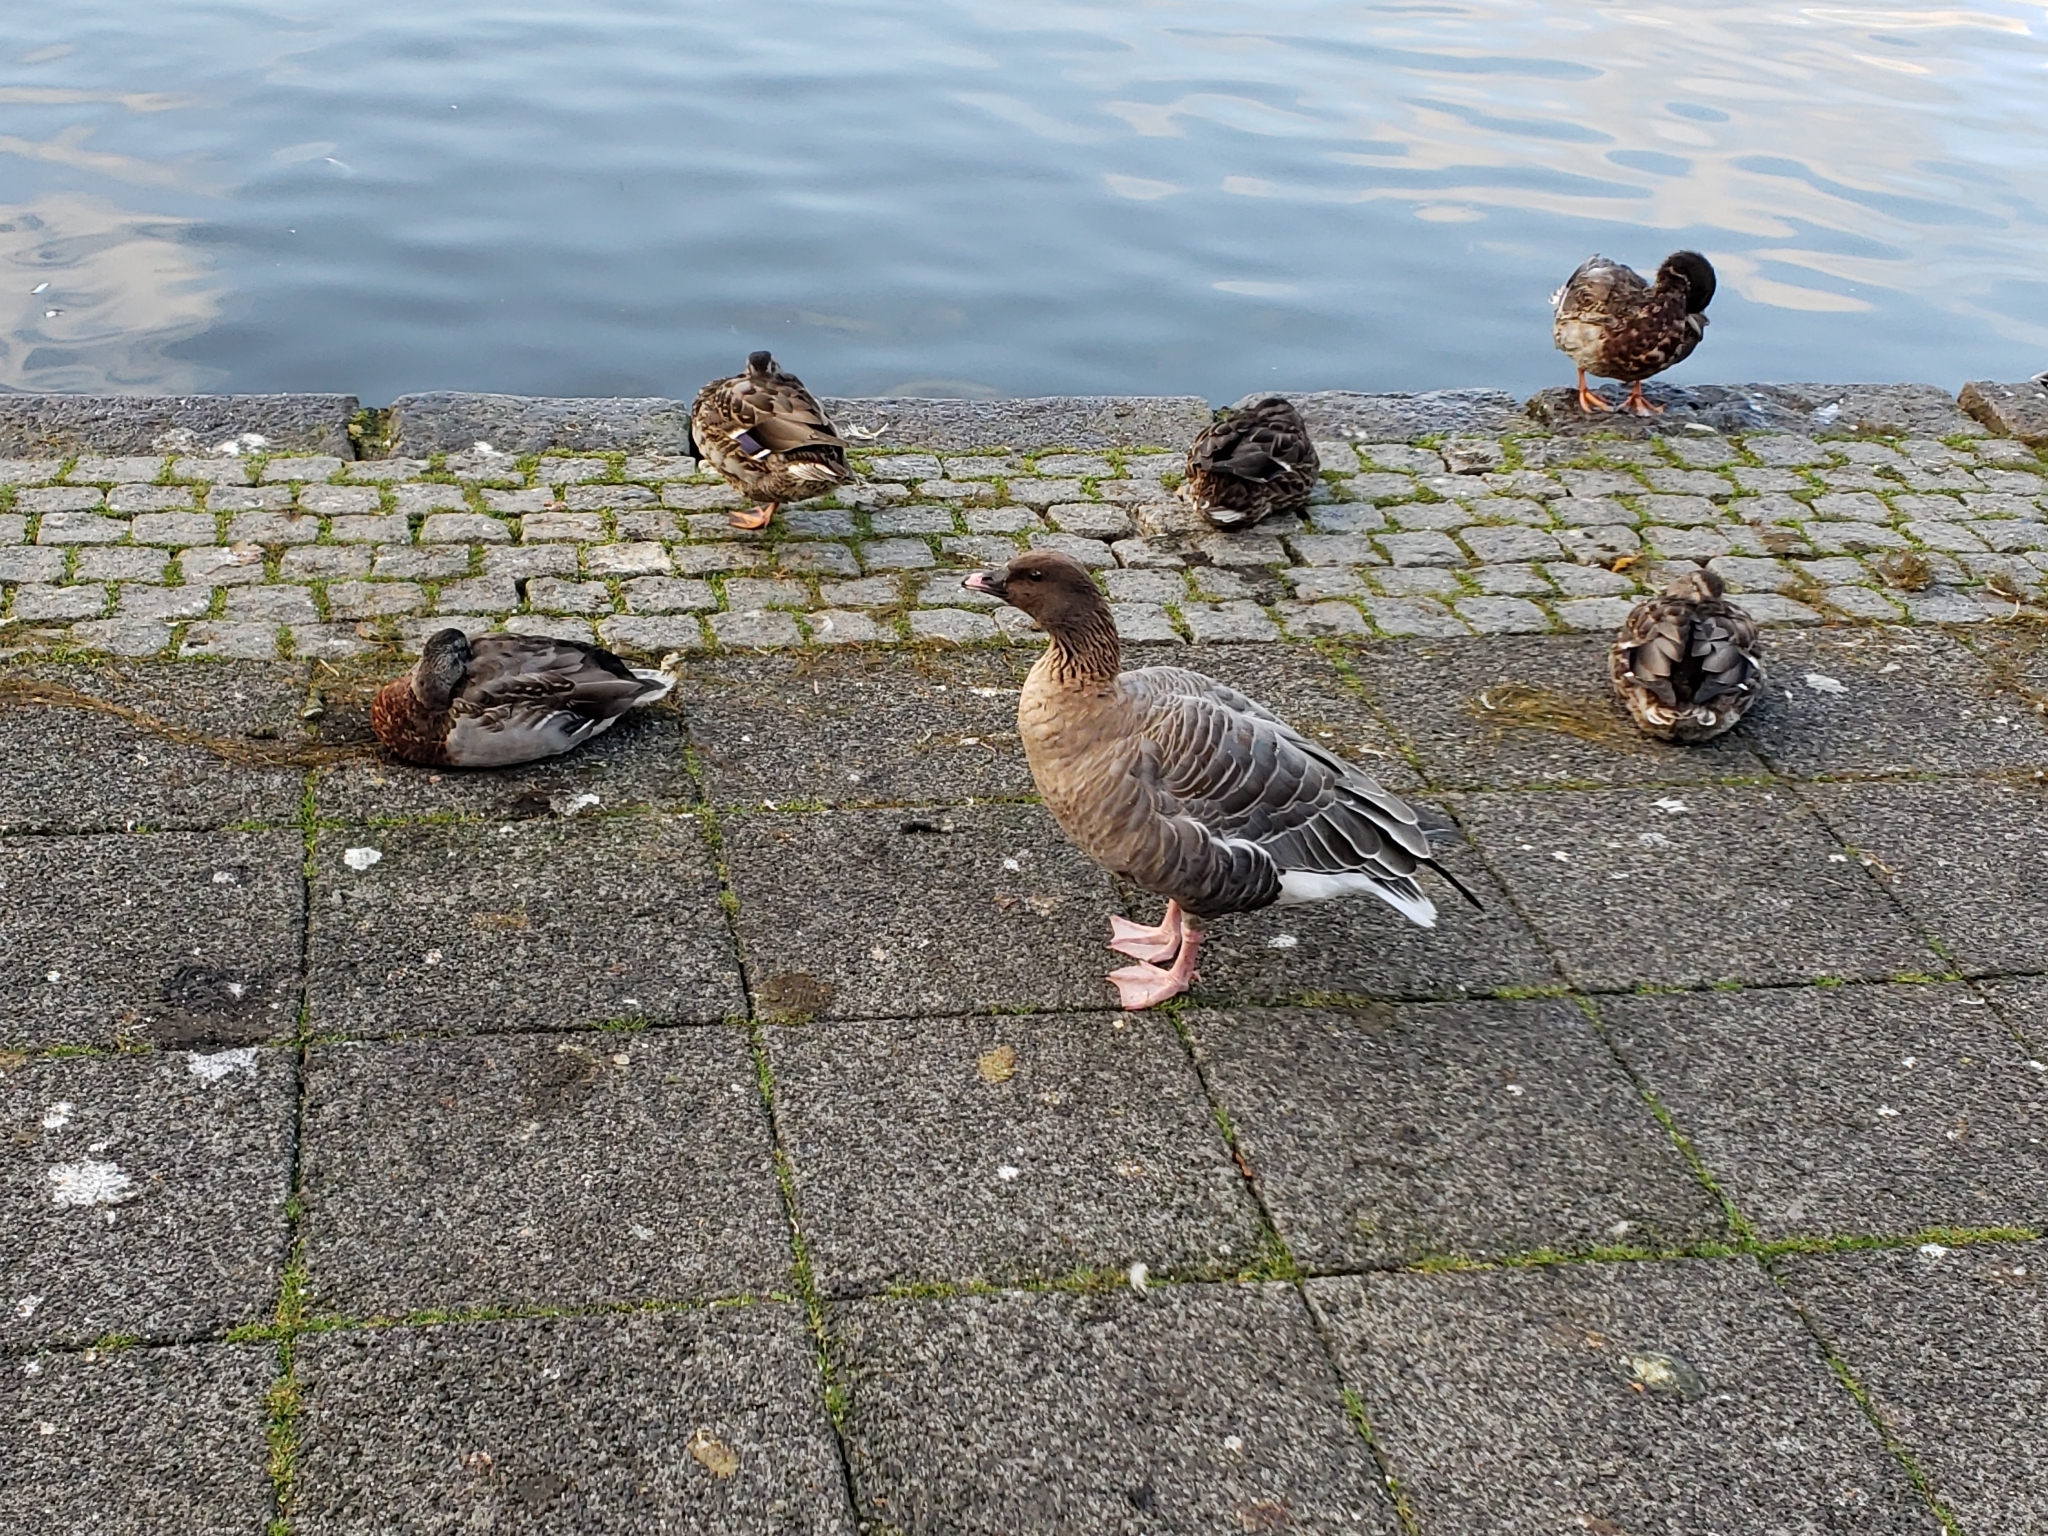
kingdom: Animalia
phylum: Chordata
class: Aves
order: Anseriformes
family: Anatidae
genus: Anser
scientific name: Anser brachyrhynchus
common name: Pink-footed goose
